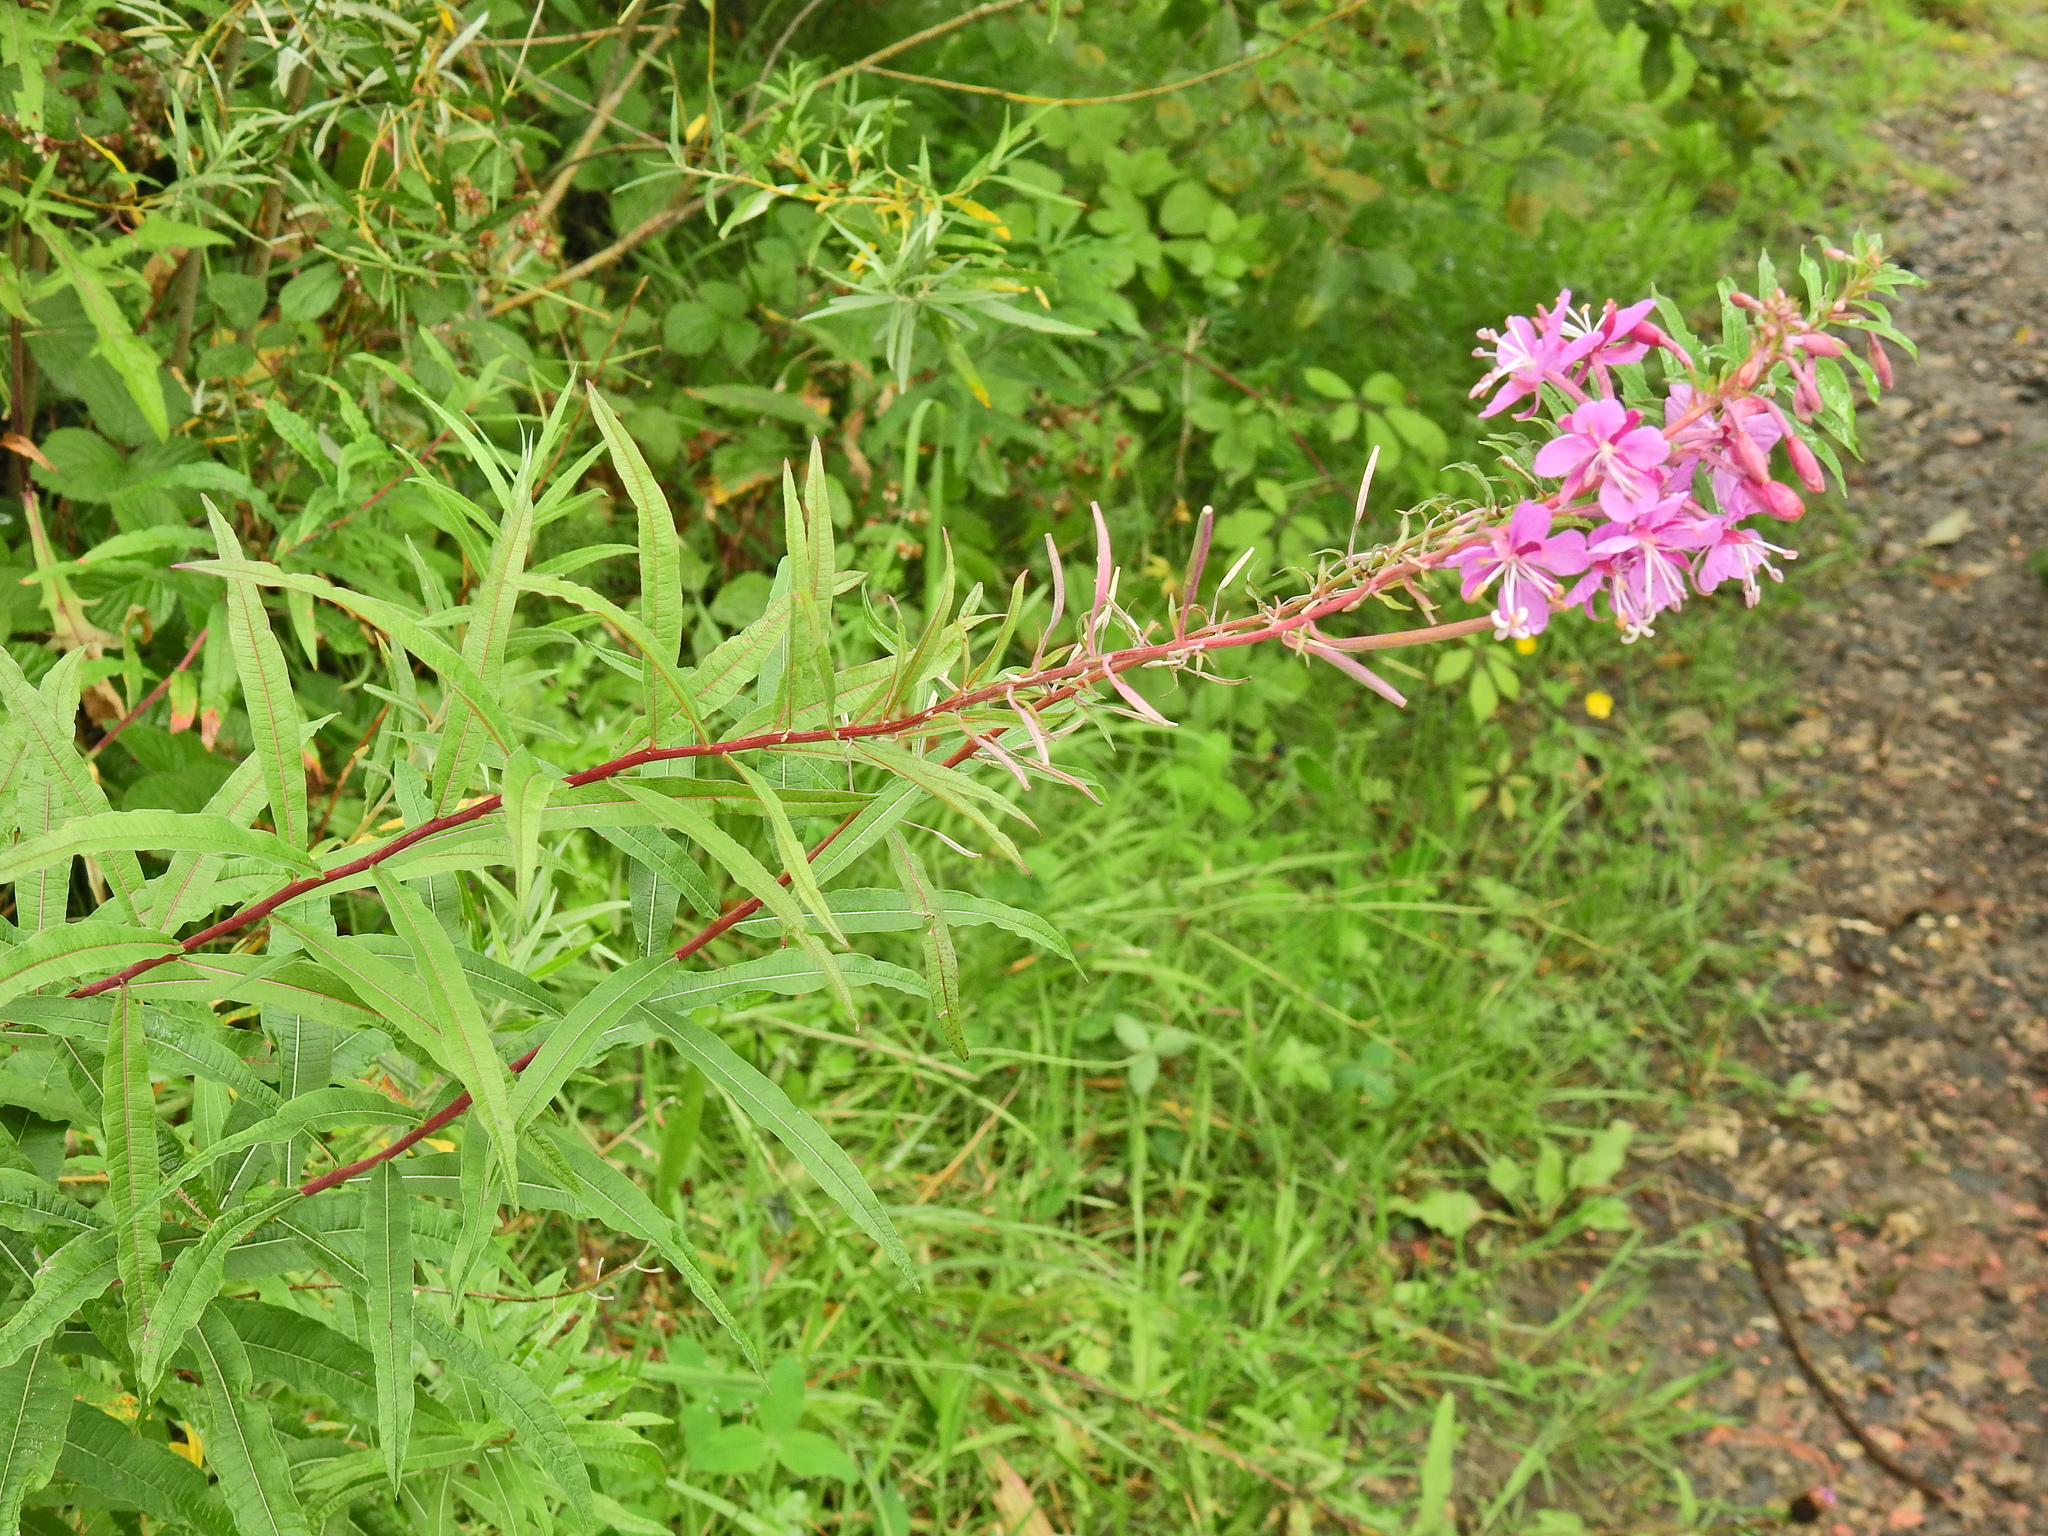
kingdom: Plantae
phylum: Tracheophyta
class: Magnoliopsida
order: Myrtales
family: Onagraceae
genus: Chamaenerion
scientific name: Chamaenerion angustifolium
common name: Fireweed
